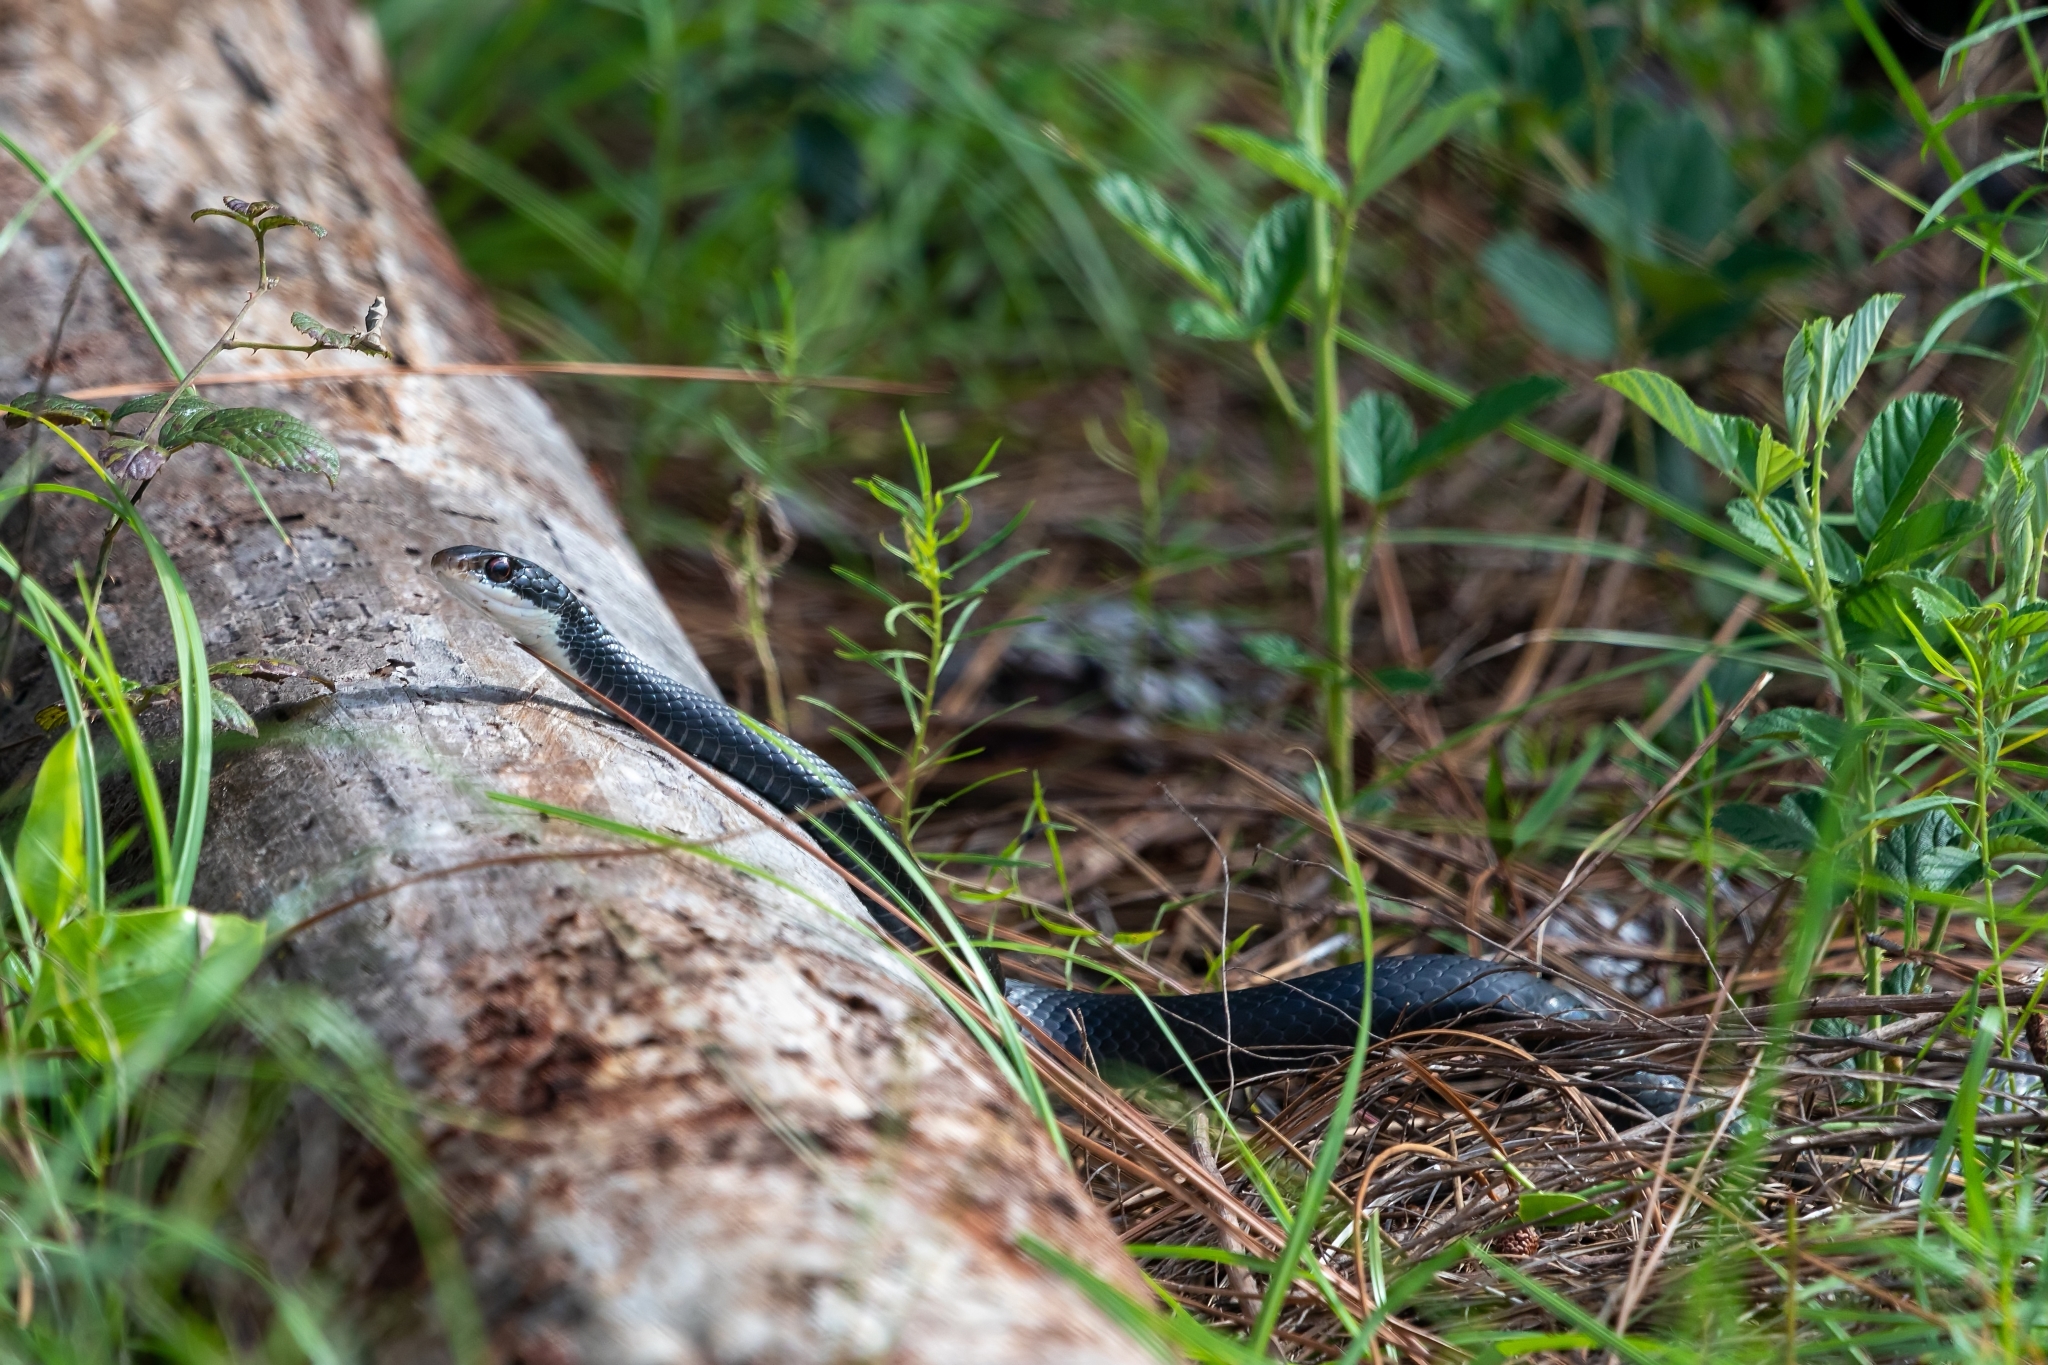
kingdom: Animalia
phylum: Chordata
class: Squamata
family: Colubridae
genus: Coluber
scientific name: Coluber constrictor
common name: Eastern racer
